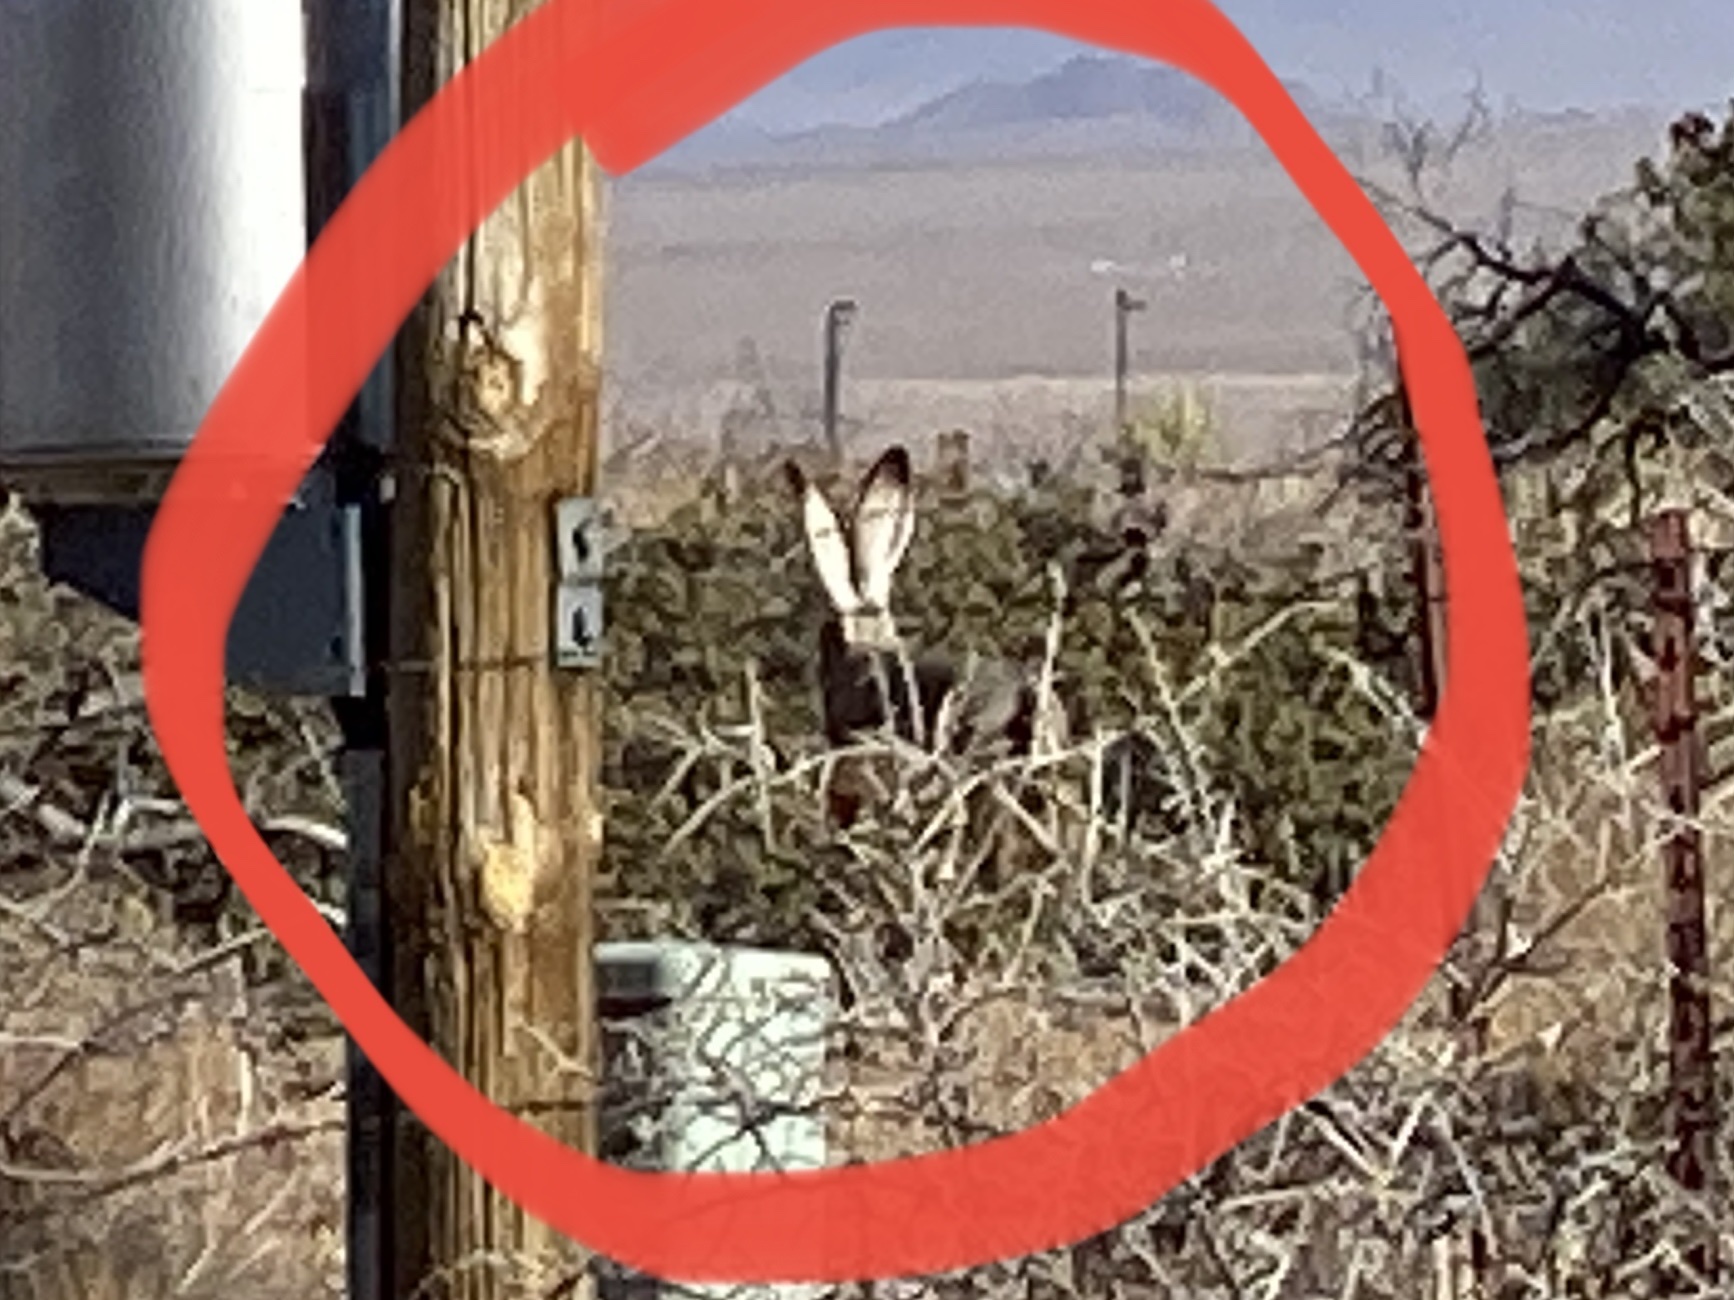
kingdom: Animalia
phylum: Chordata
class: Mammalia
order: Lagomorpha
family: Leporidae
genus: Lepus
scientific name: Lepus californicus
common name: Black-tailed jackrabbit
